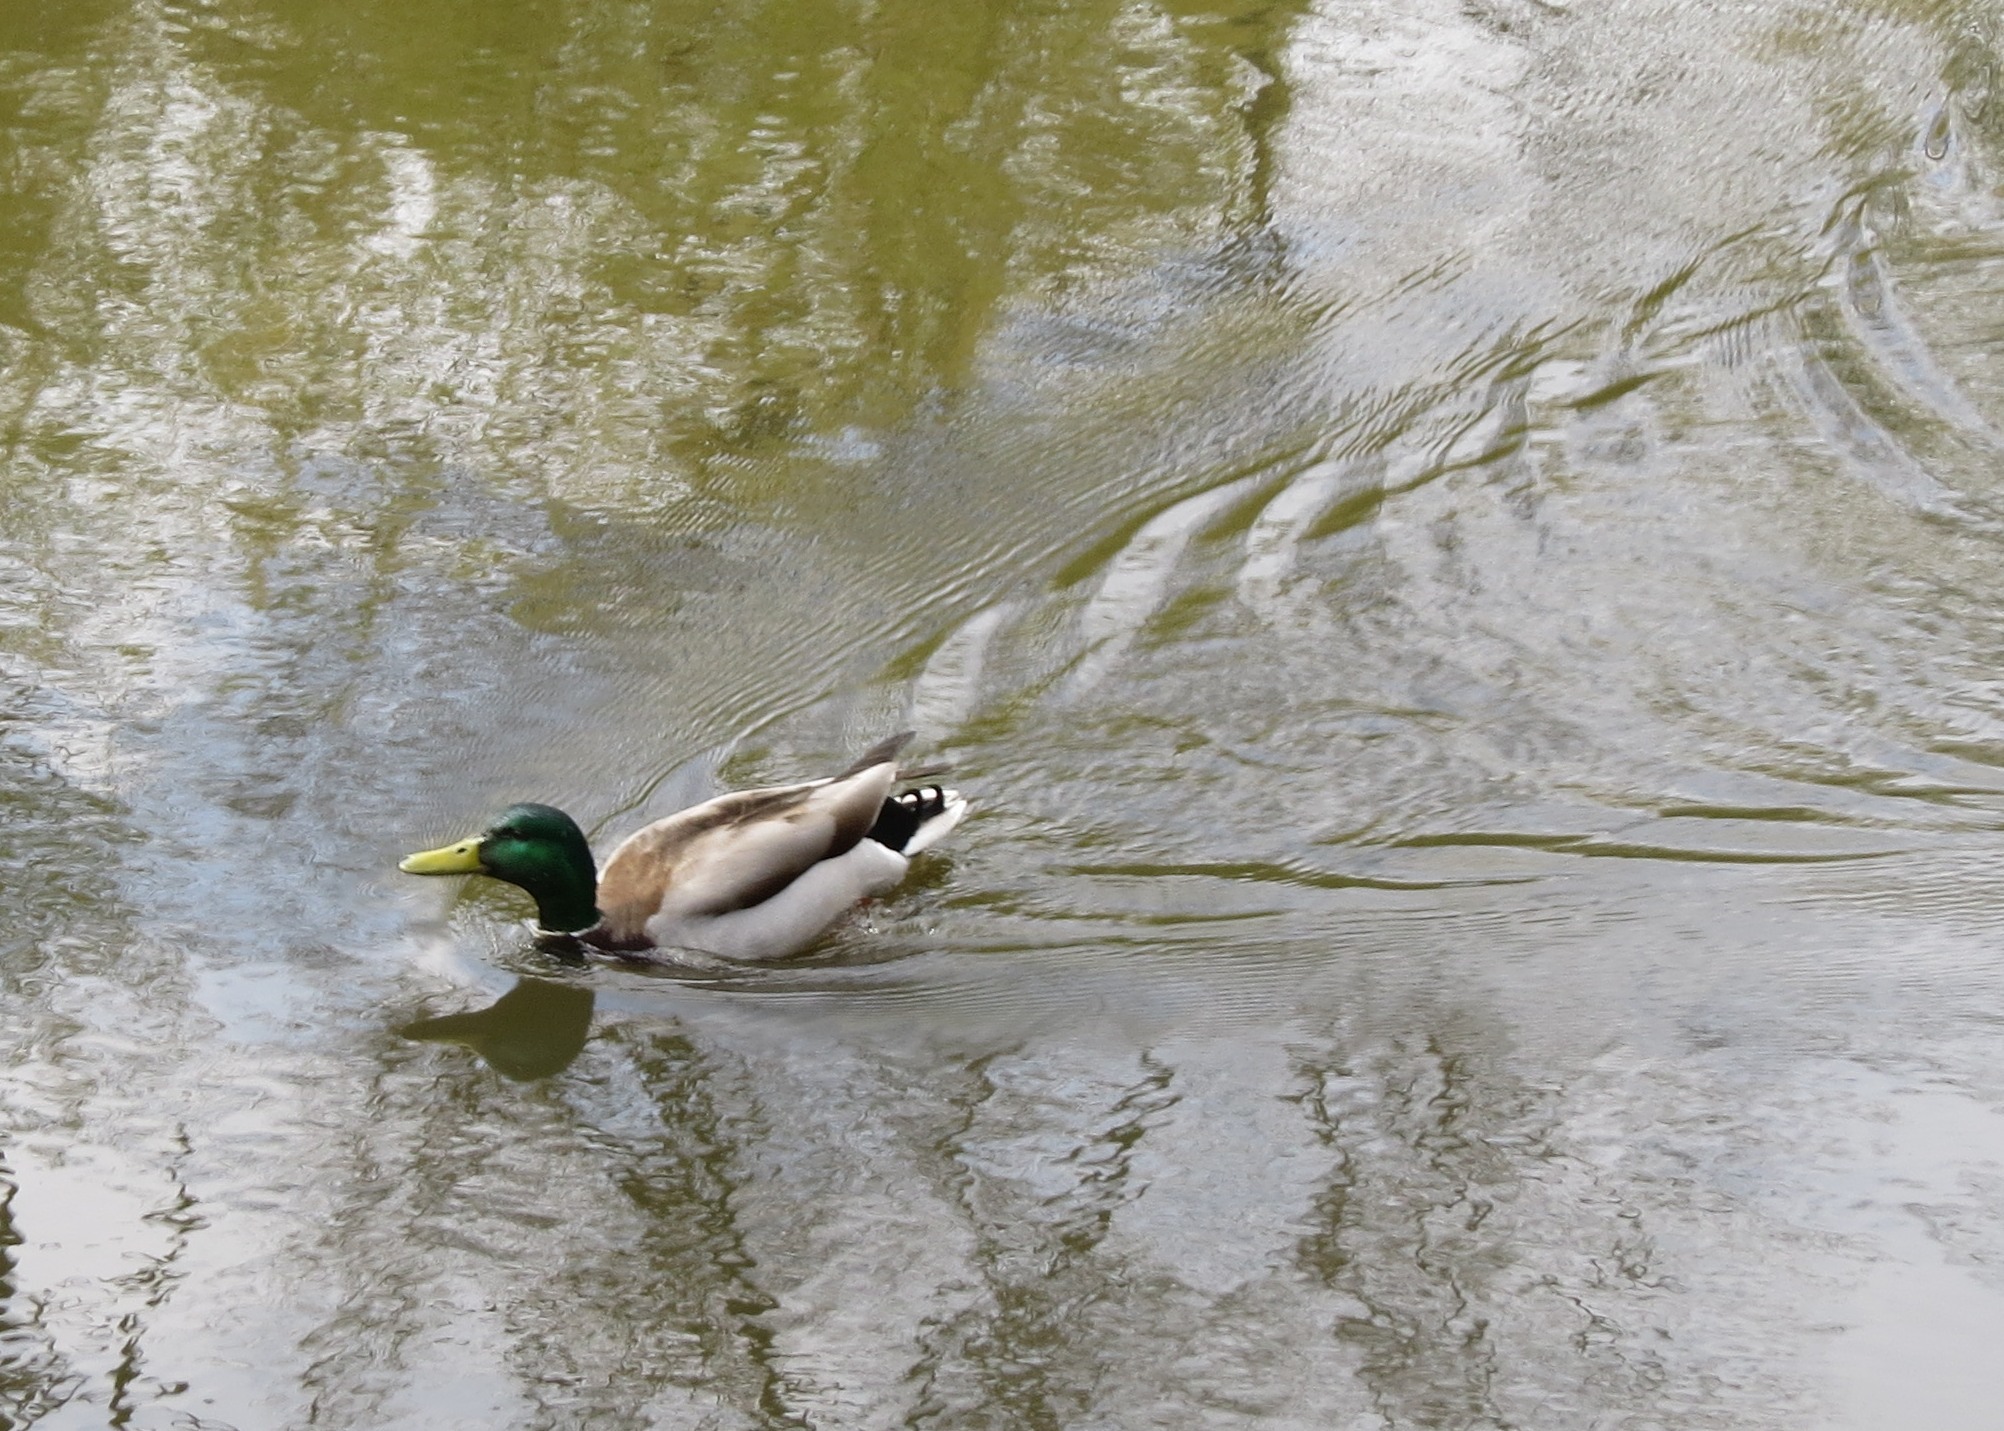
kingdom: Animalia
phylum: Chordata
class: Aves
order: Anseriformes
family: Anatidae
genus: Anas
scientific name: Anas platyrhynchos
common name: Mallard
